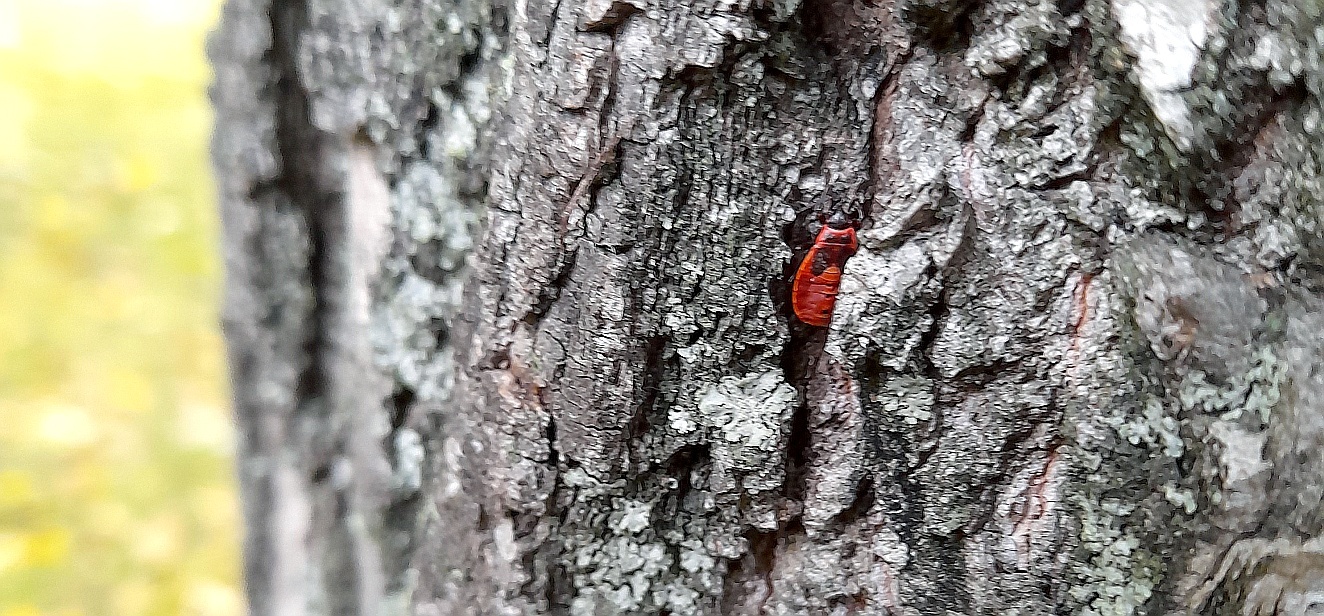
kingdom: Animalia
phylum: Arthropoda
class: Insecta
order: Hemiptera
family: Pyrrhocoridae
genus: Pyrrhocoris
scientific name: Pyrrhocoris apterus
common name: Firebug
